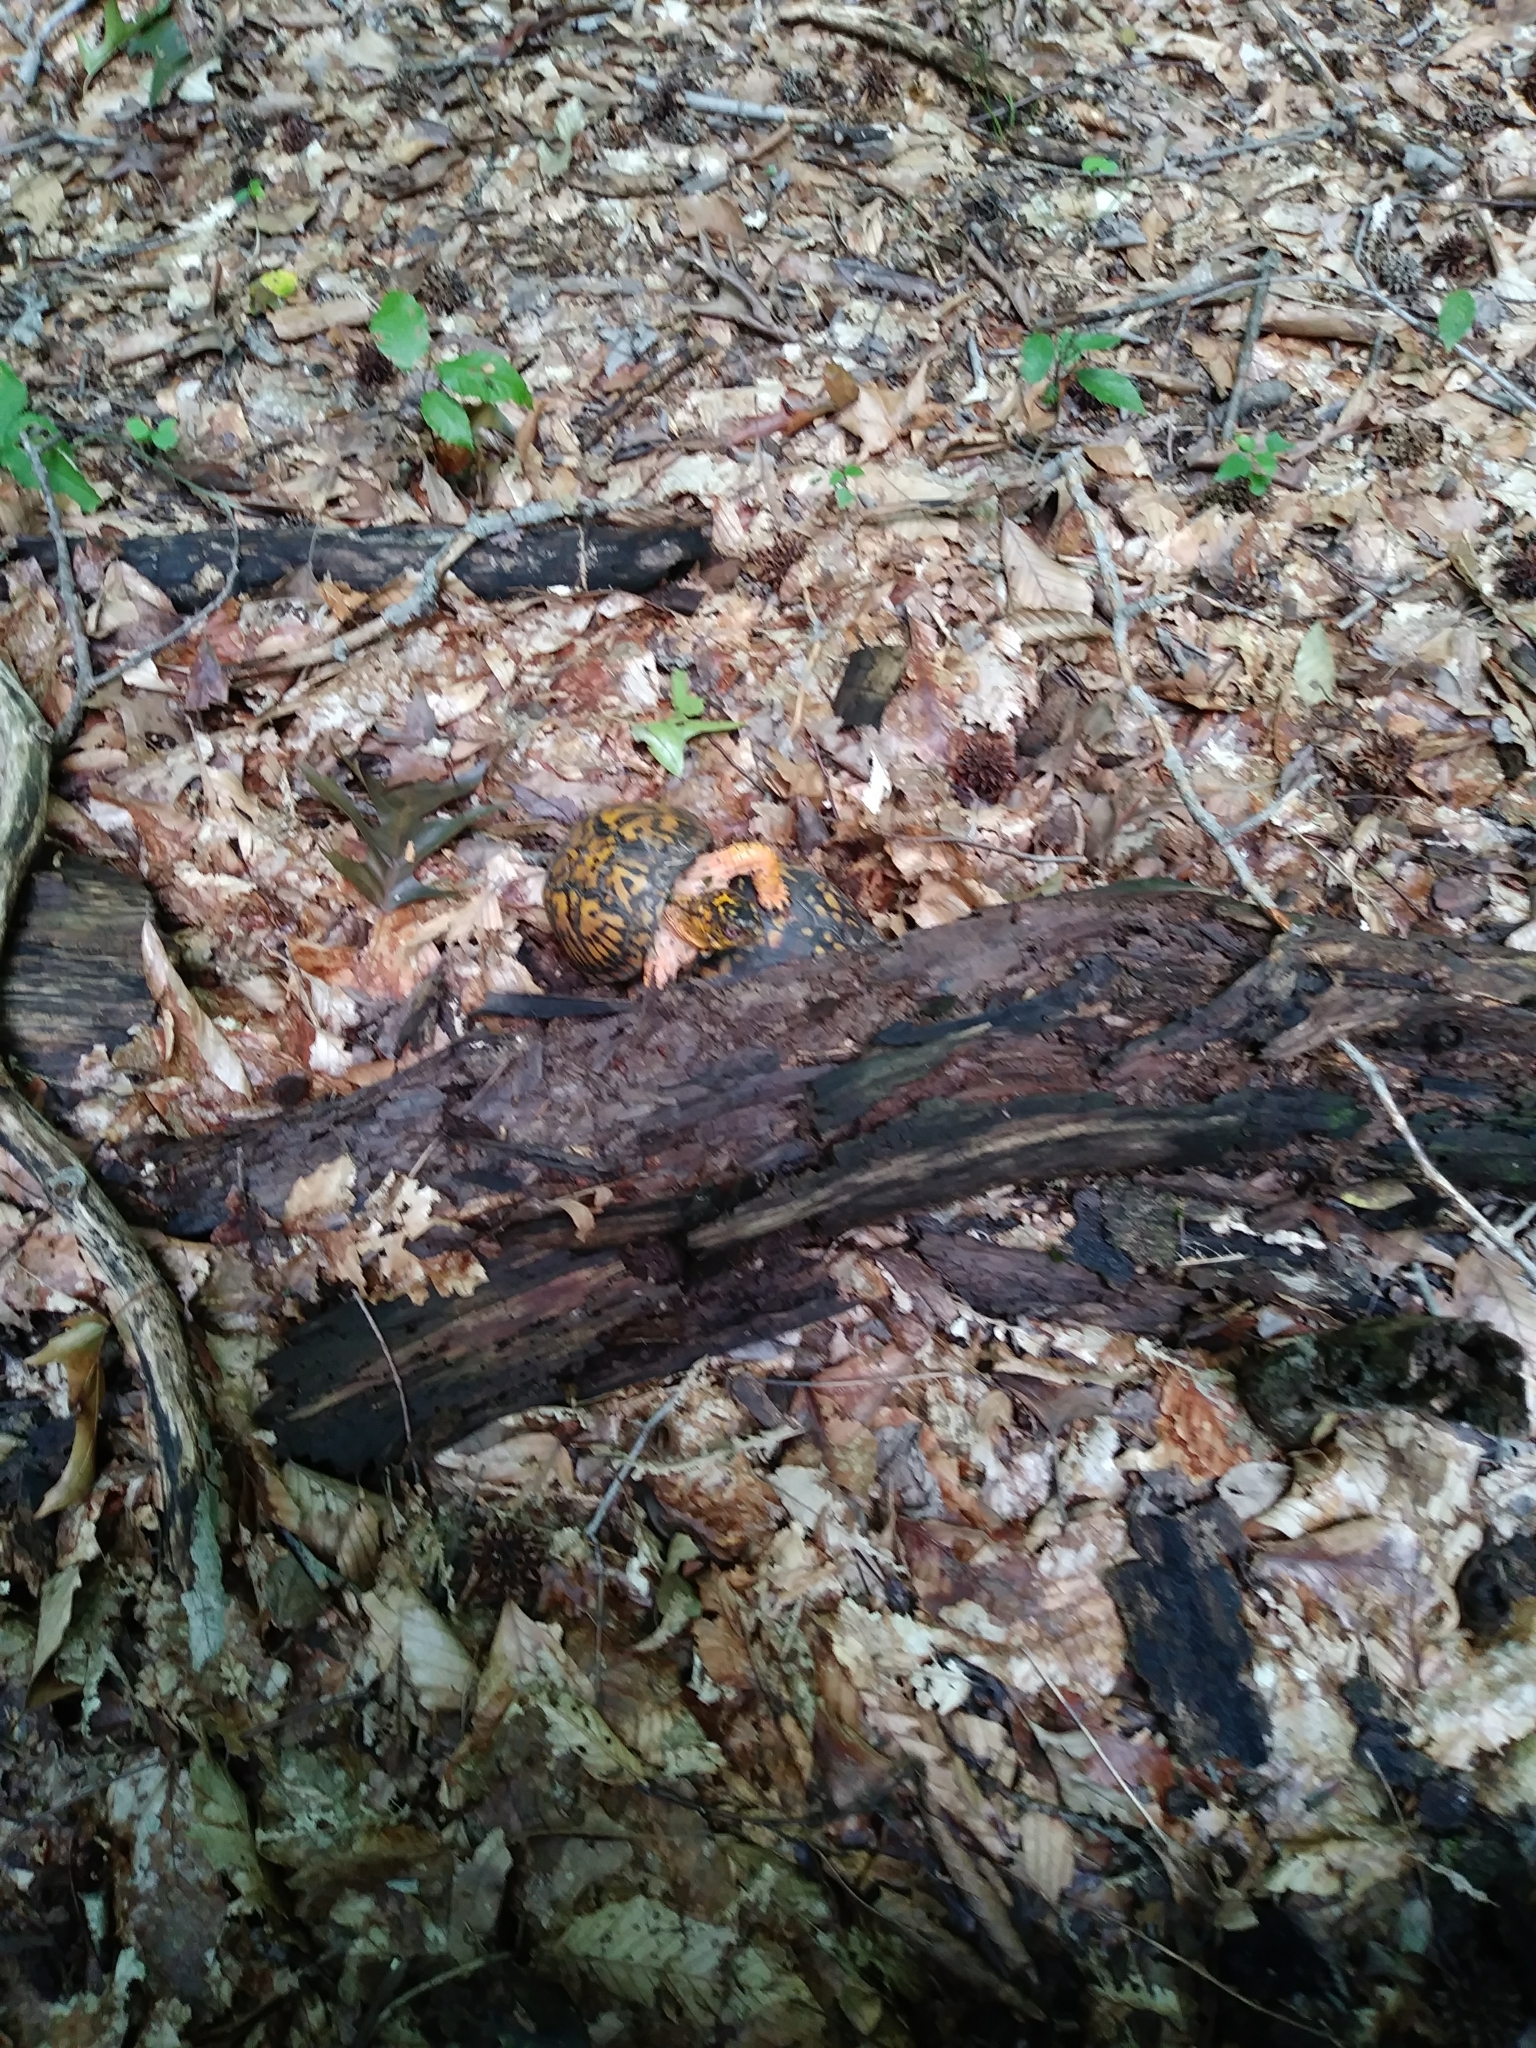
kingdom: Animalia
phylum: Chordata
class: Testudines
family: Emydidae
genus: Terrapene
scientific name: Terrapene carolina
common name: Common box turtle
